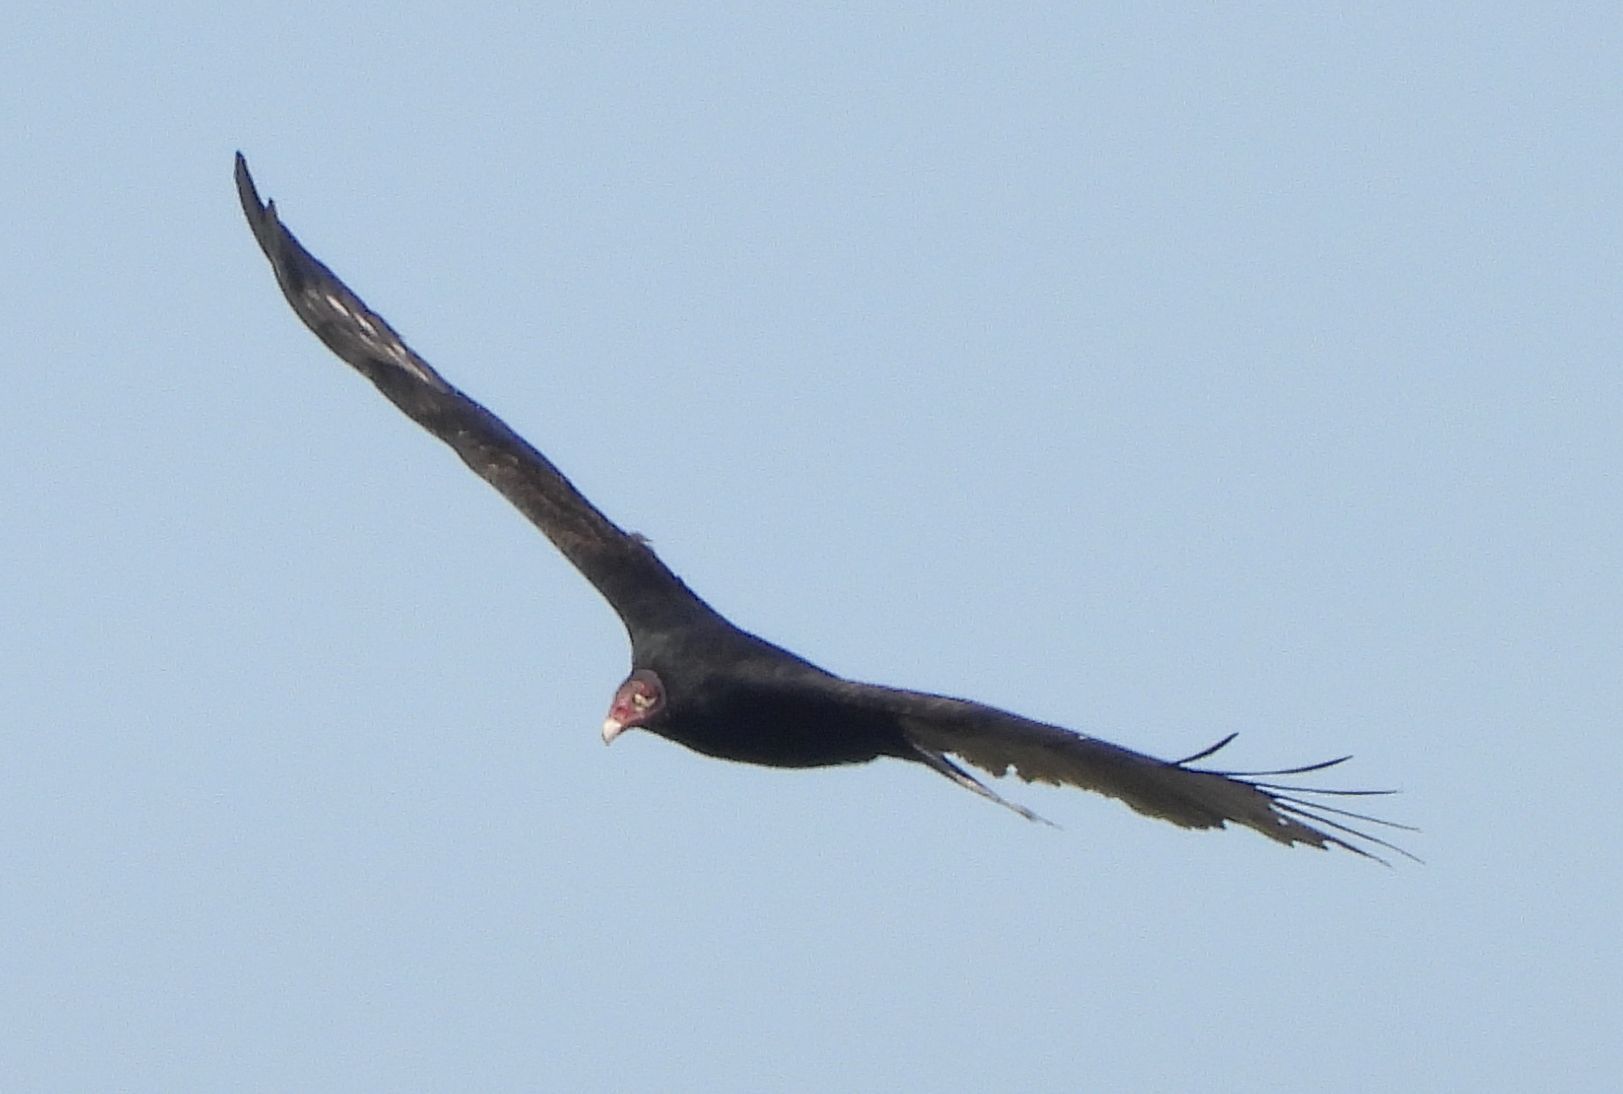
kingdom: Animalia
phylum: Chordata
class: Aves
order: Accipitriformes
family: Cathartidae
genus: Cathartes
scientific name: Cathartes aura
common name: Turkey vulture
